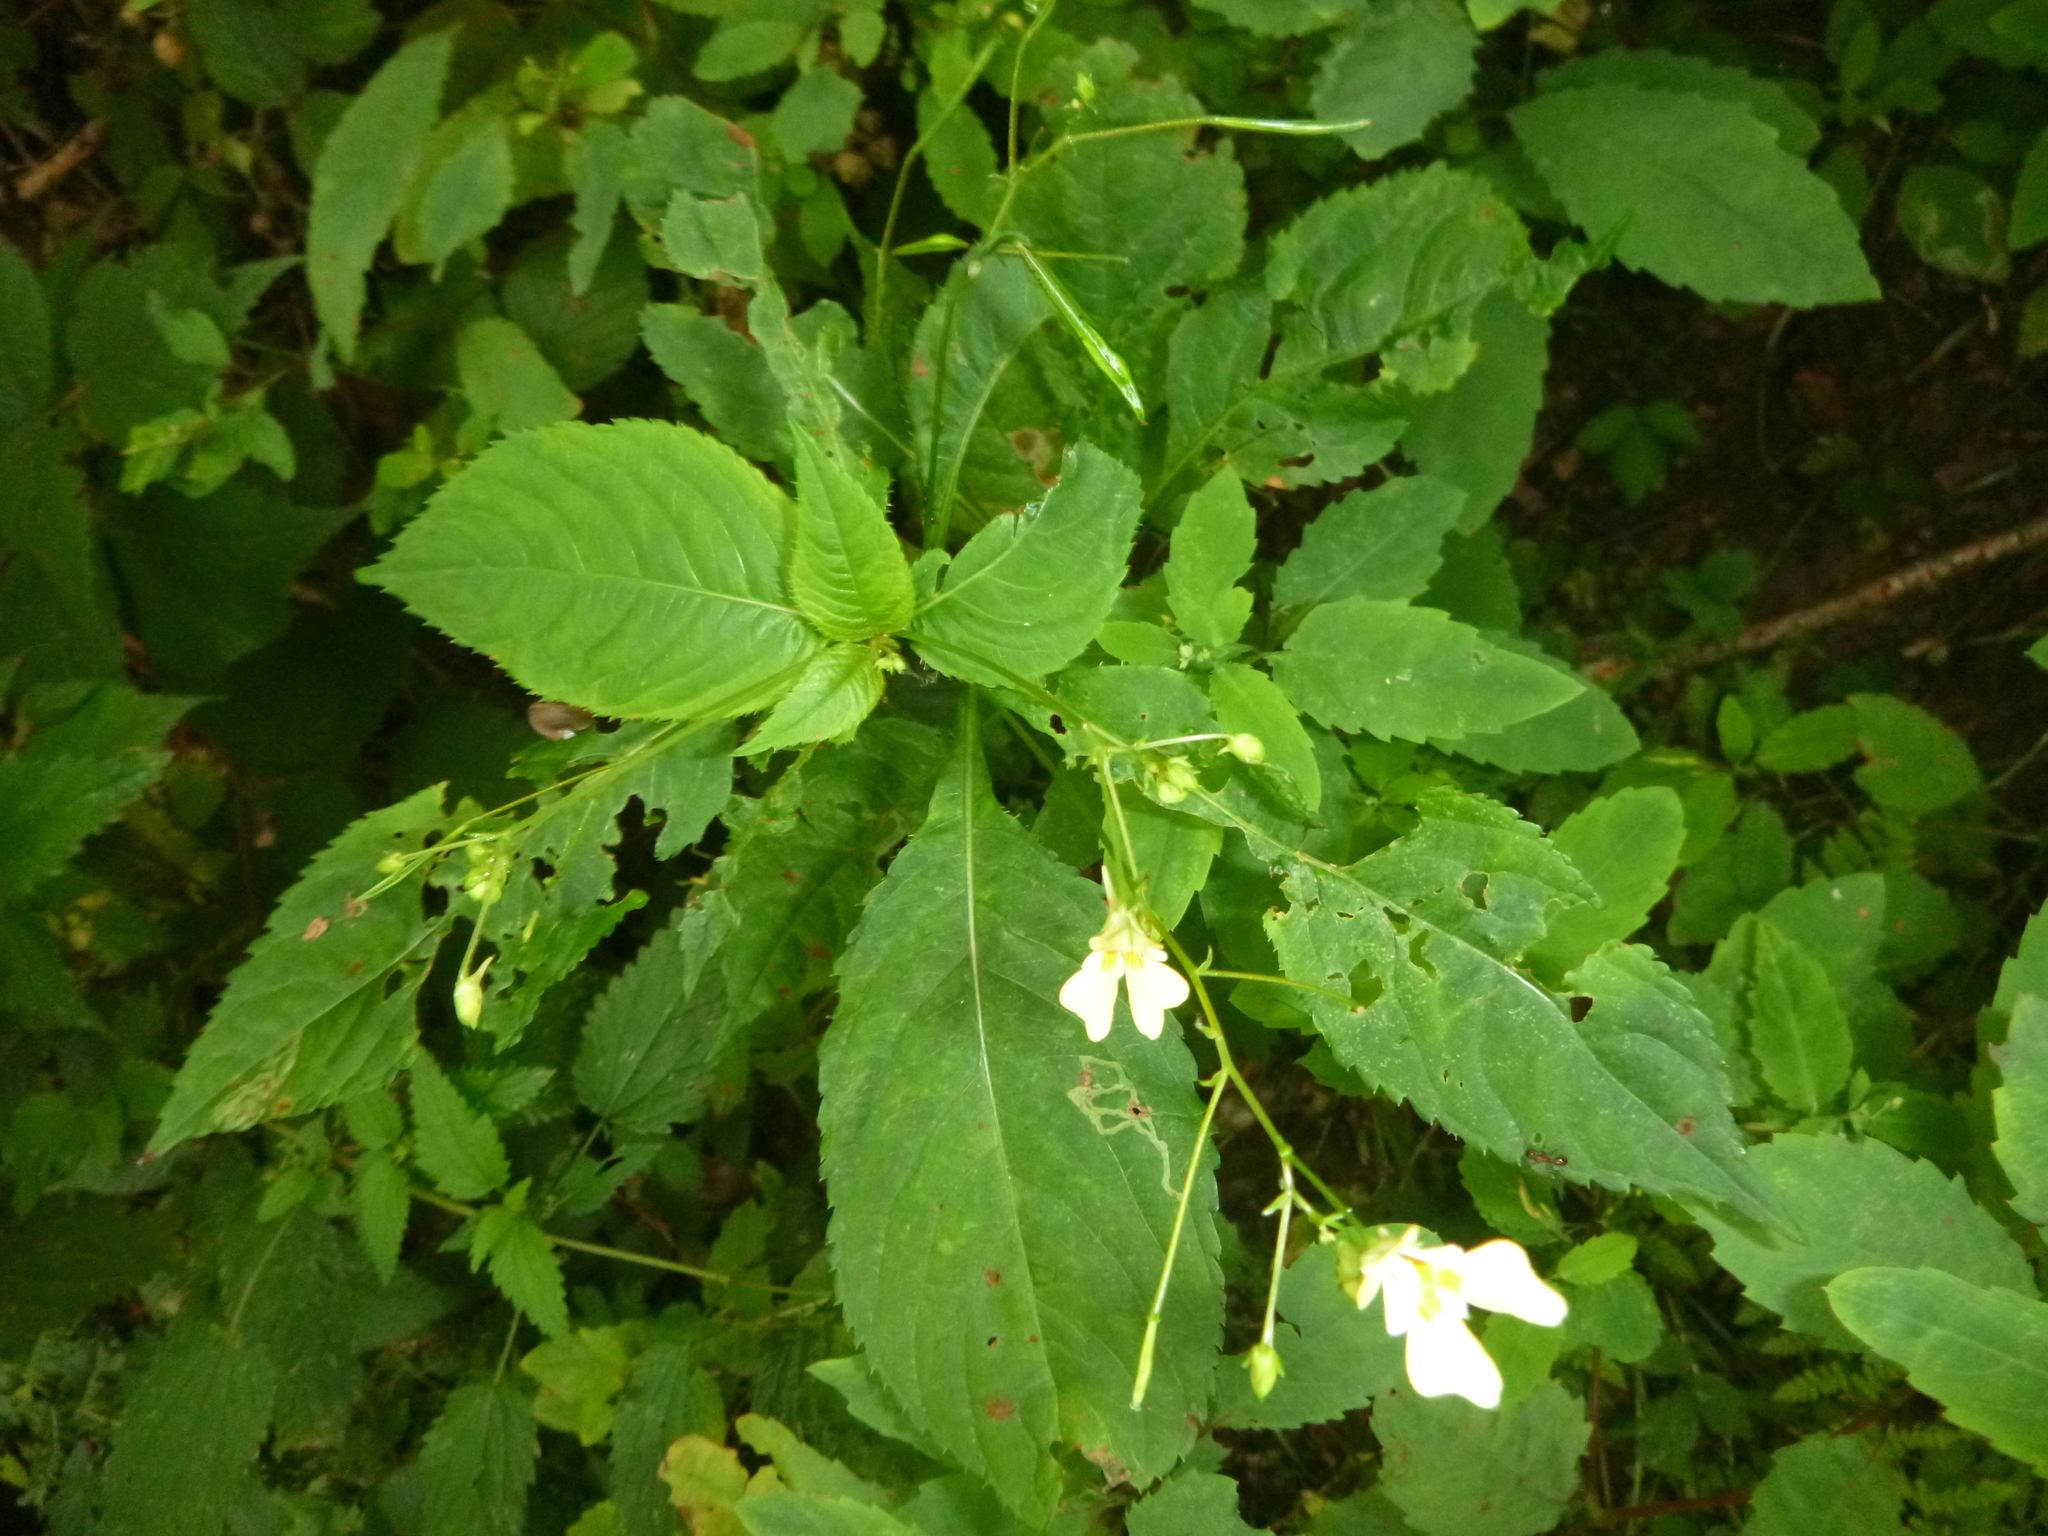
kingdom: Plantae
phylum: Tracheophyta
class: Magnoliopsida
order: Ericales
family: Balsaminaceae
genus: Impatiens
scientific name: Impatiens parviflora
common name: Small balsam
